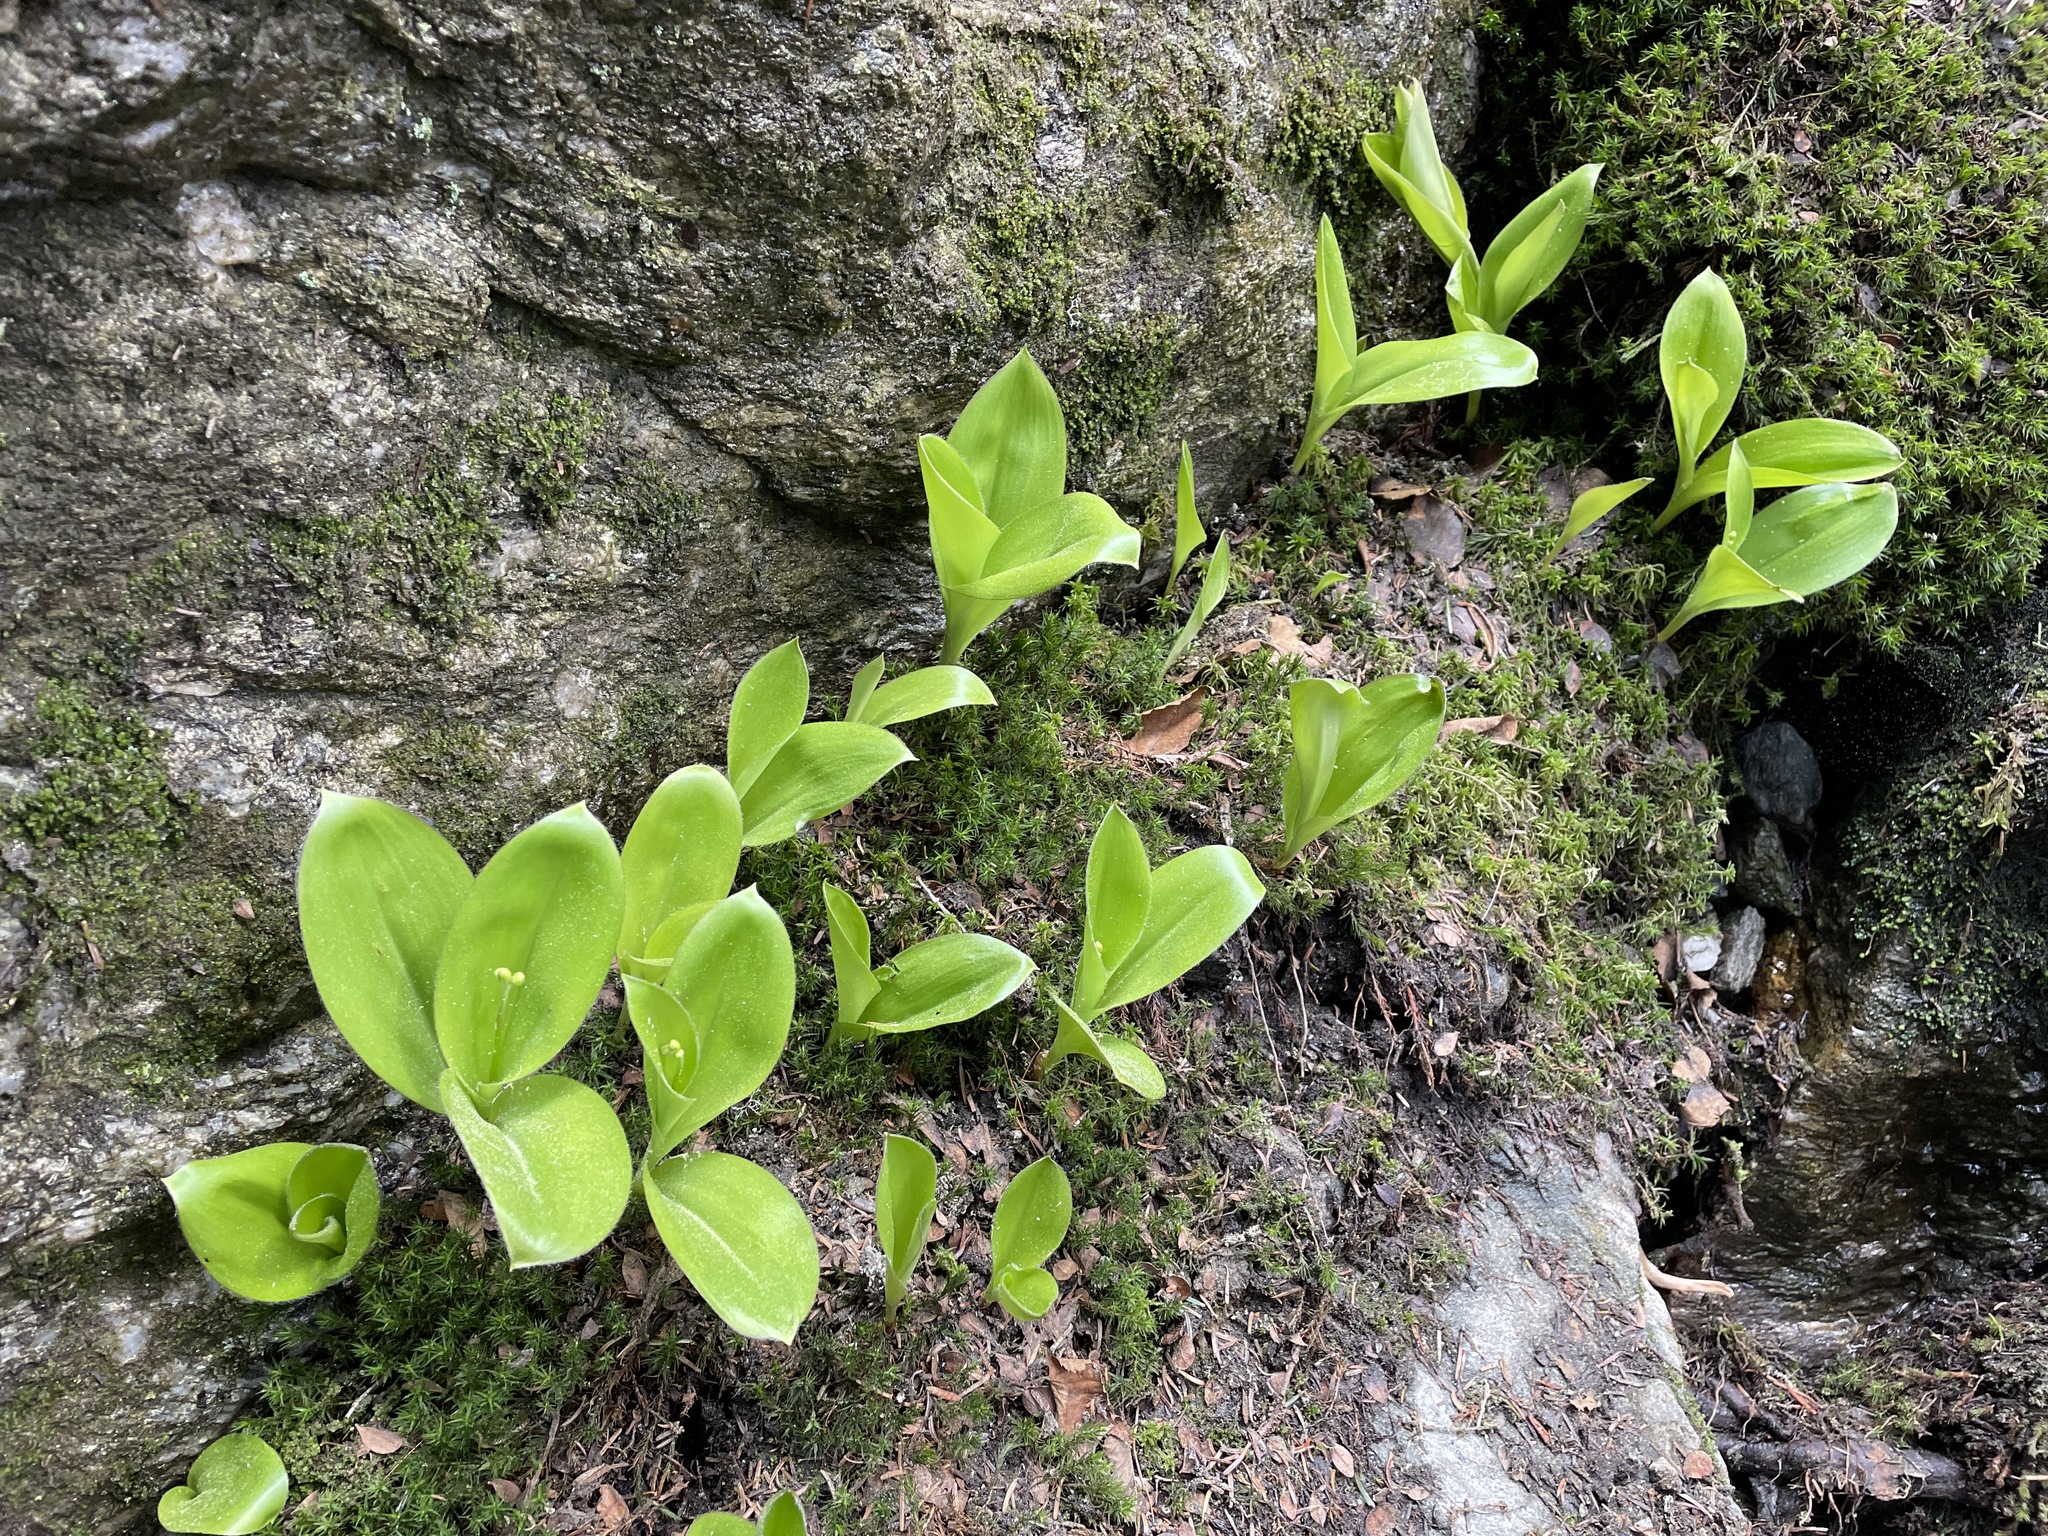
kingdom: Plantae
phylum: Tracheophyta
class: Liliopsida
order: Liliales
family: Liliaceae
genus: Clintonia
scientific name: Clintonia borealis
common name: Yellow clintonia
